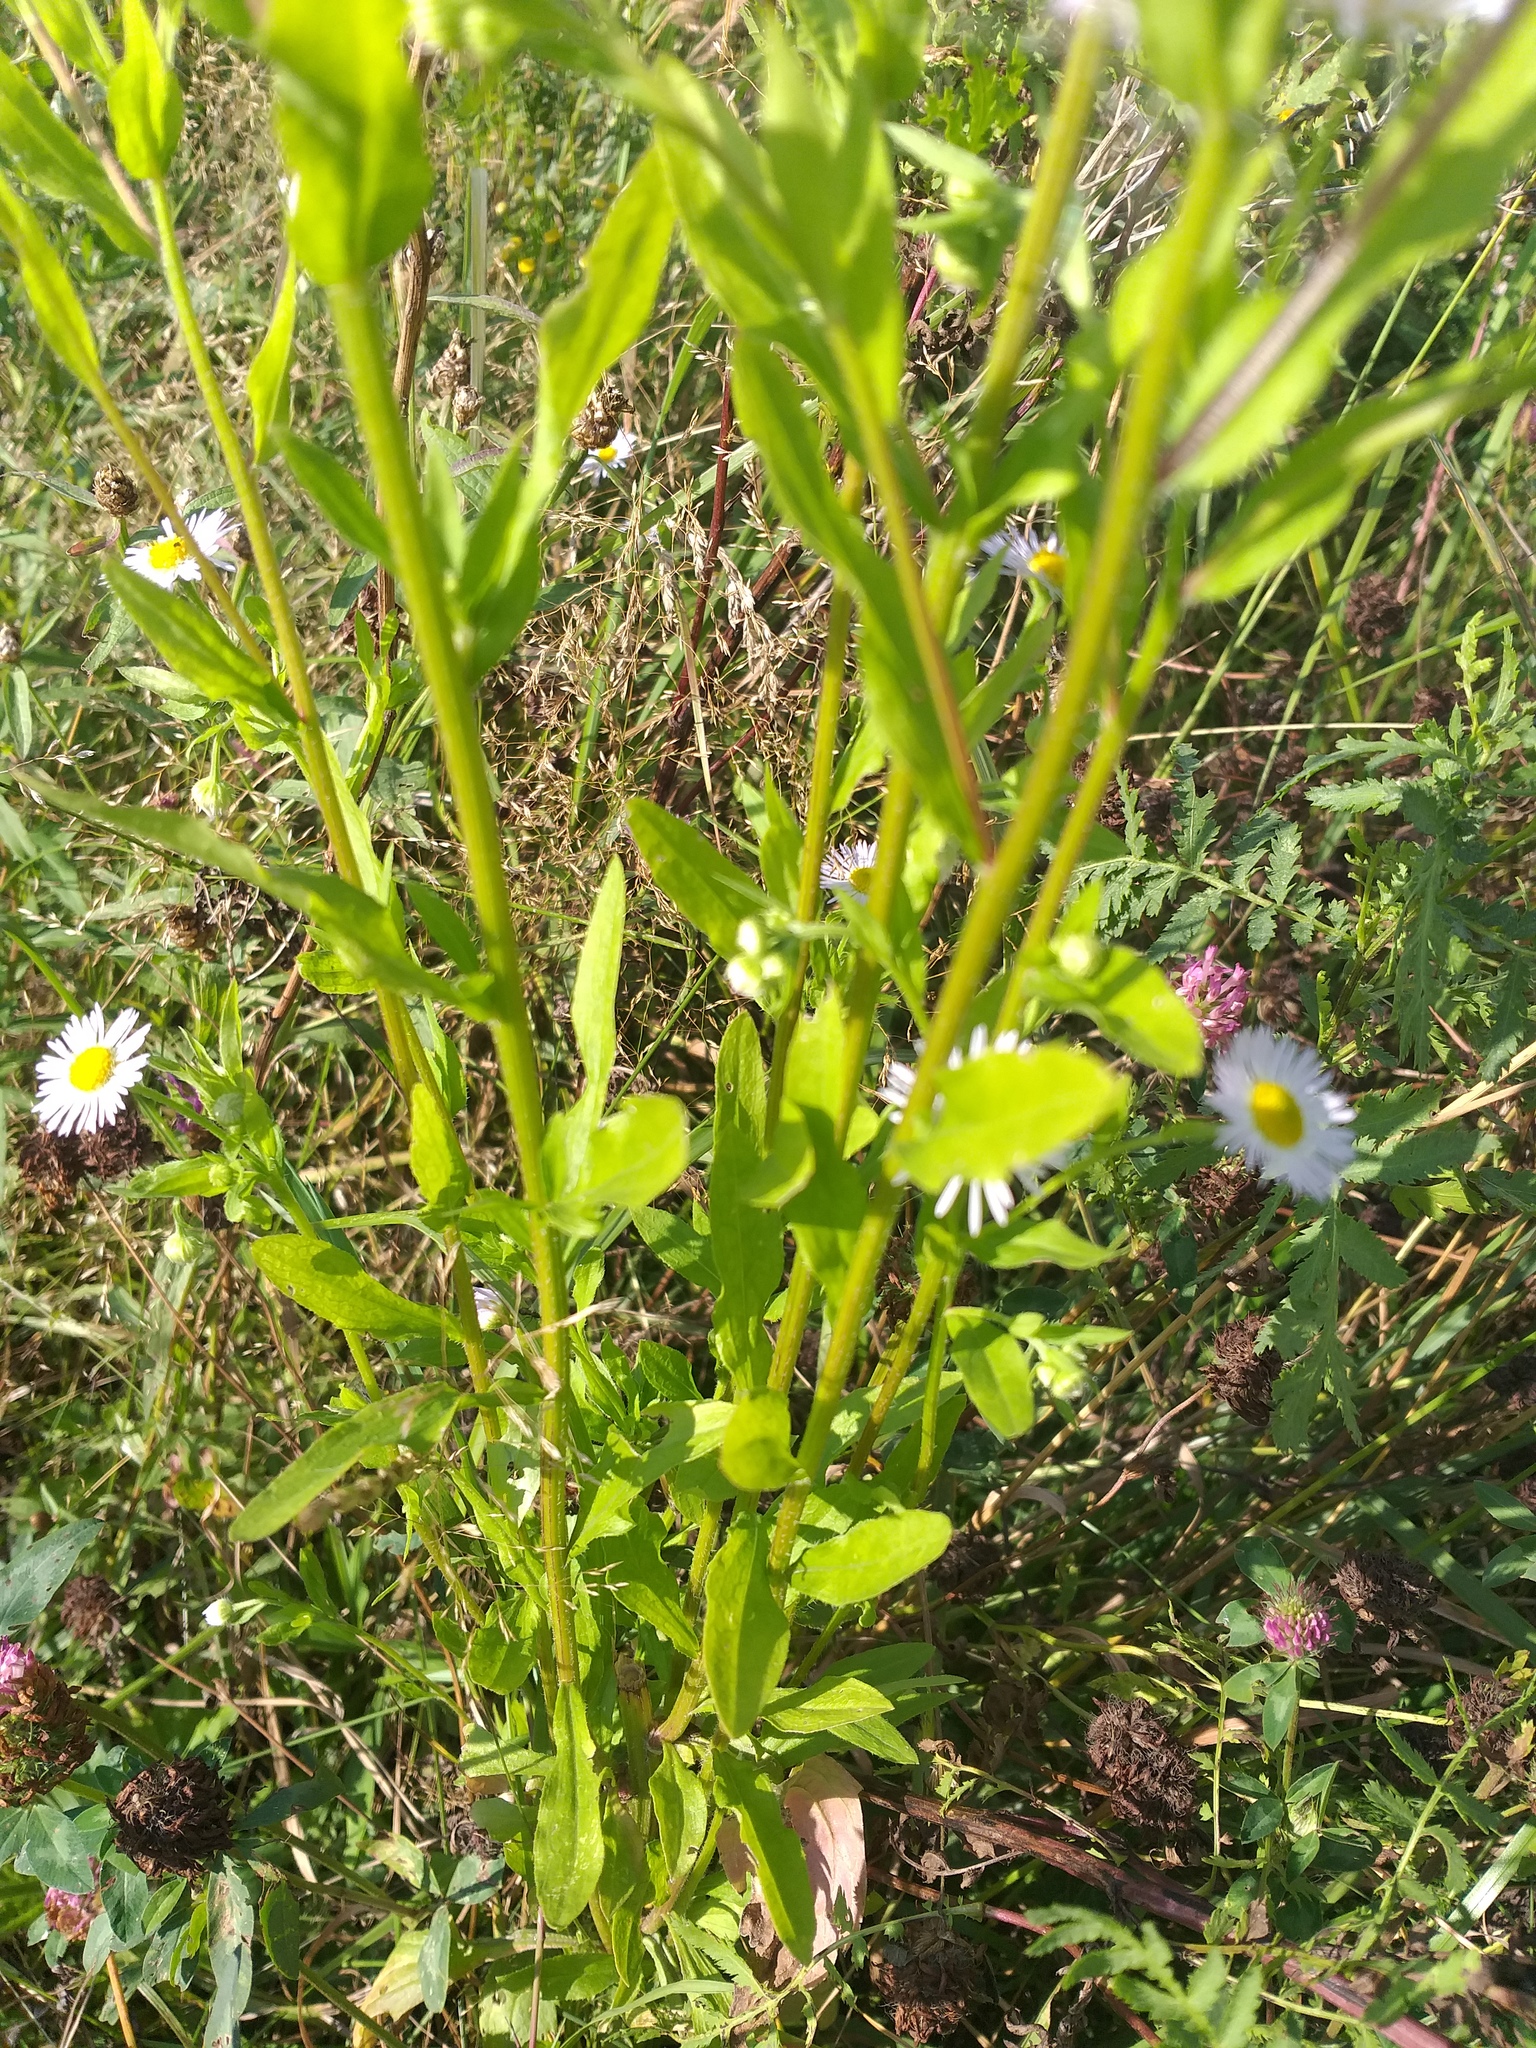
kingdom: Plantae
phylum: Tracheophyta
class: Magnoliopsida
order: Asterales
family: Asteraceae
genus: Erigeron
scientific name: Erigeron annuus
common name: Tall fleabane
